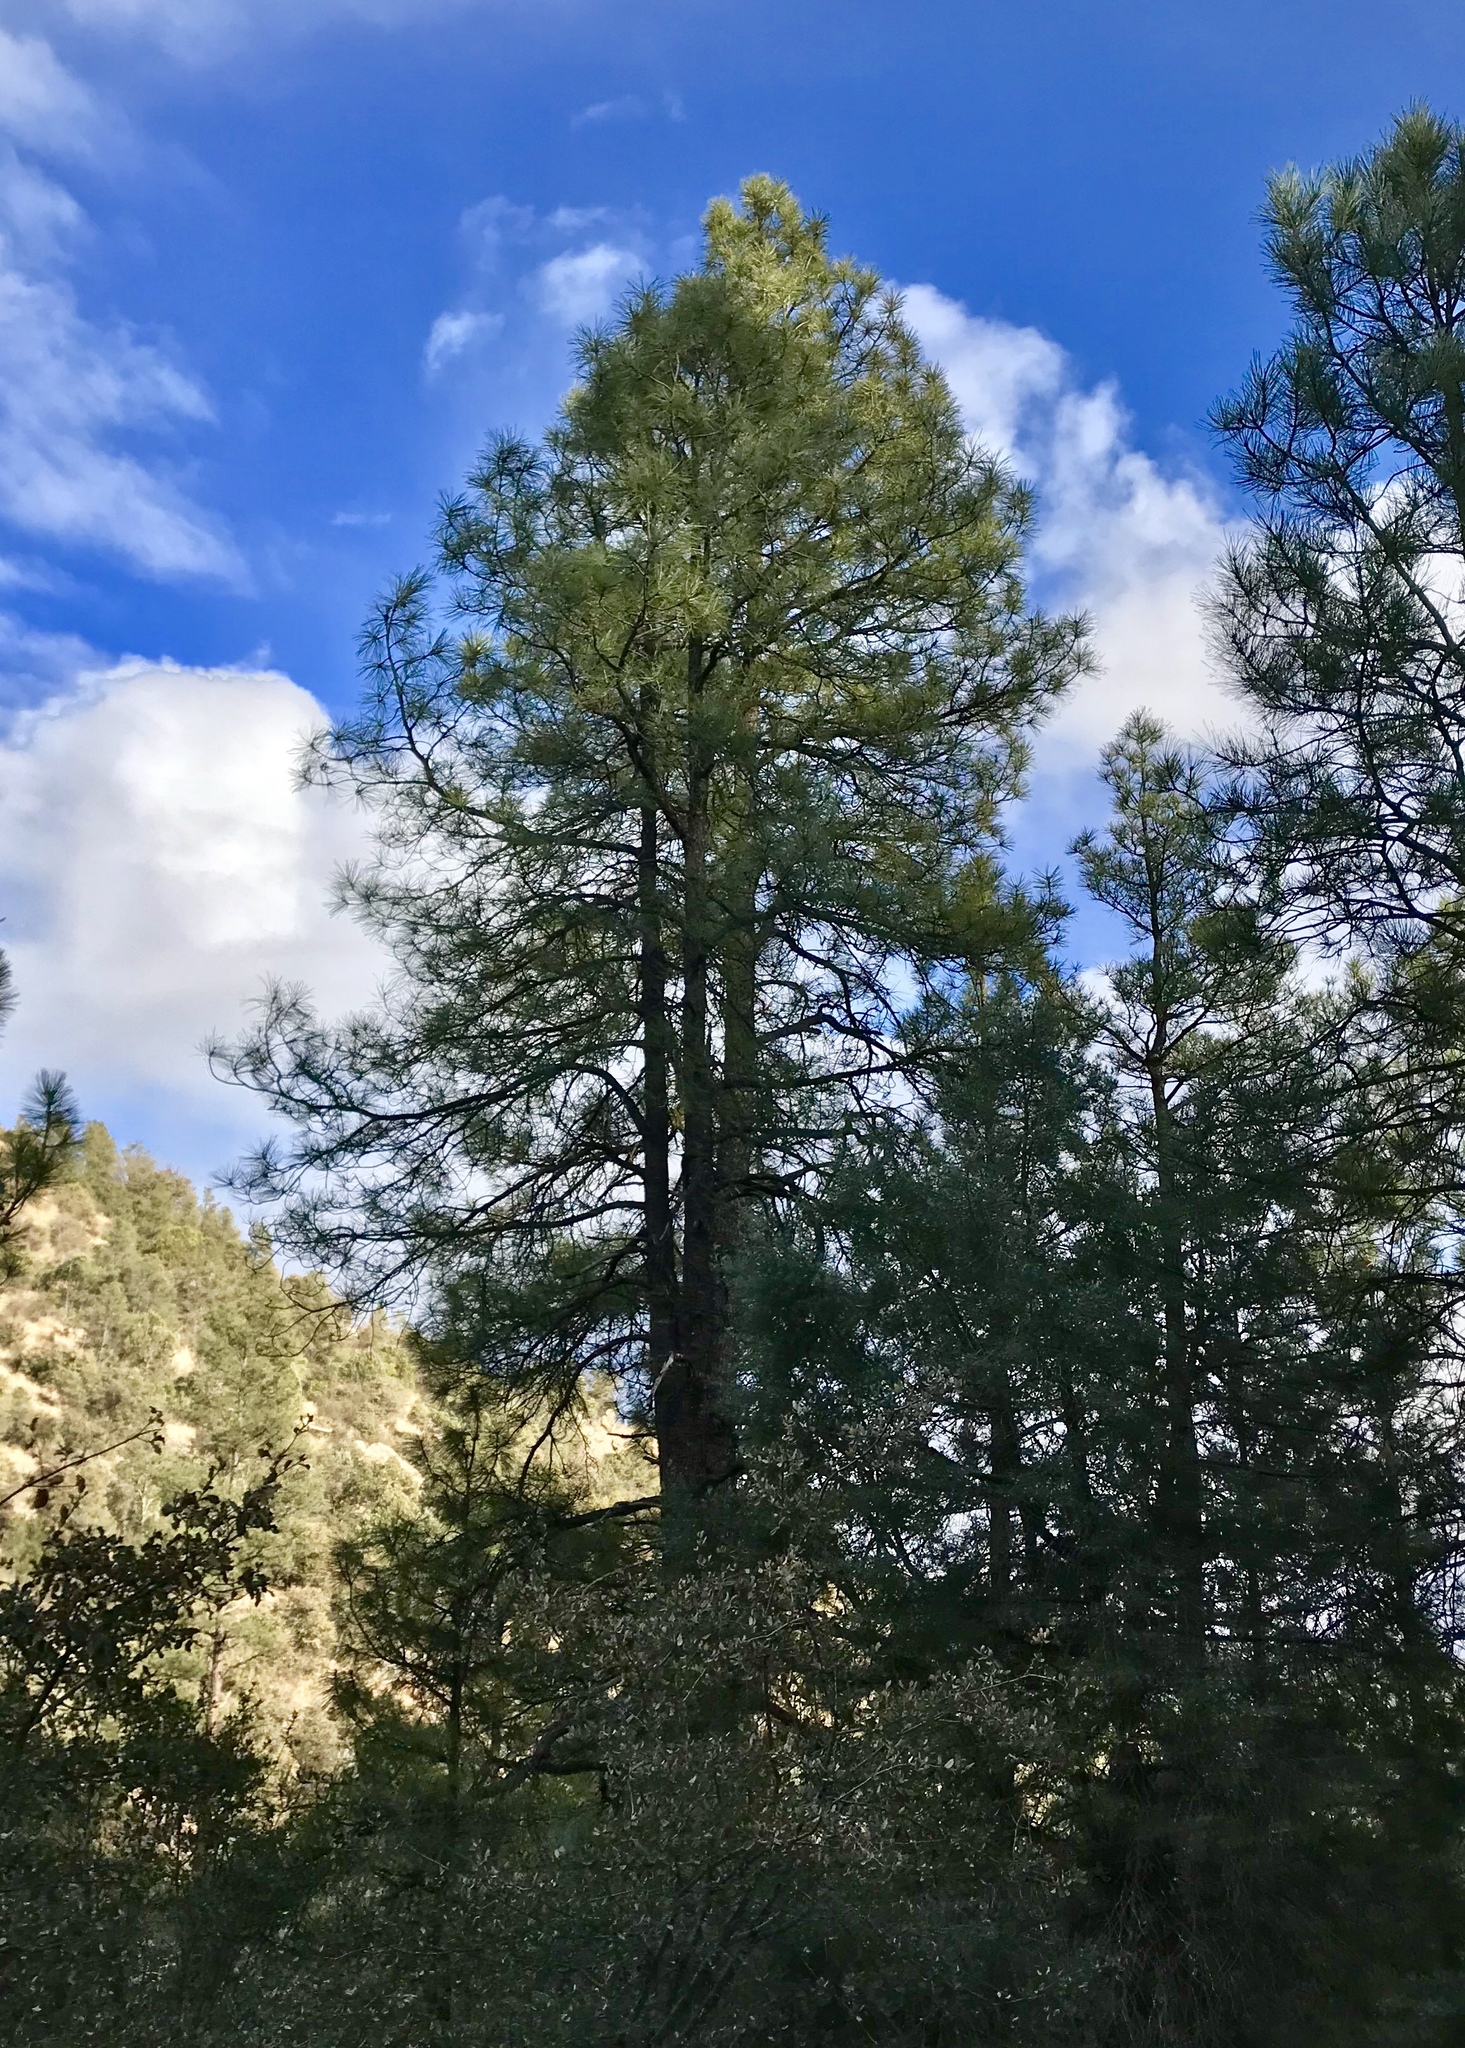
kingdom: Plantae
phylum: Tracheophyta
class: Pinopsida
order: Pinales
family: Pinaceae
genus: Pinus
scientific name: Pinus ponderosa
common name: Western yellow-pine
